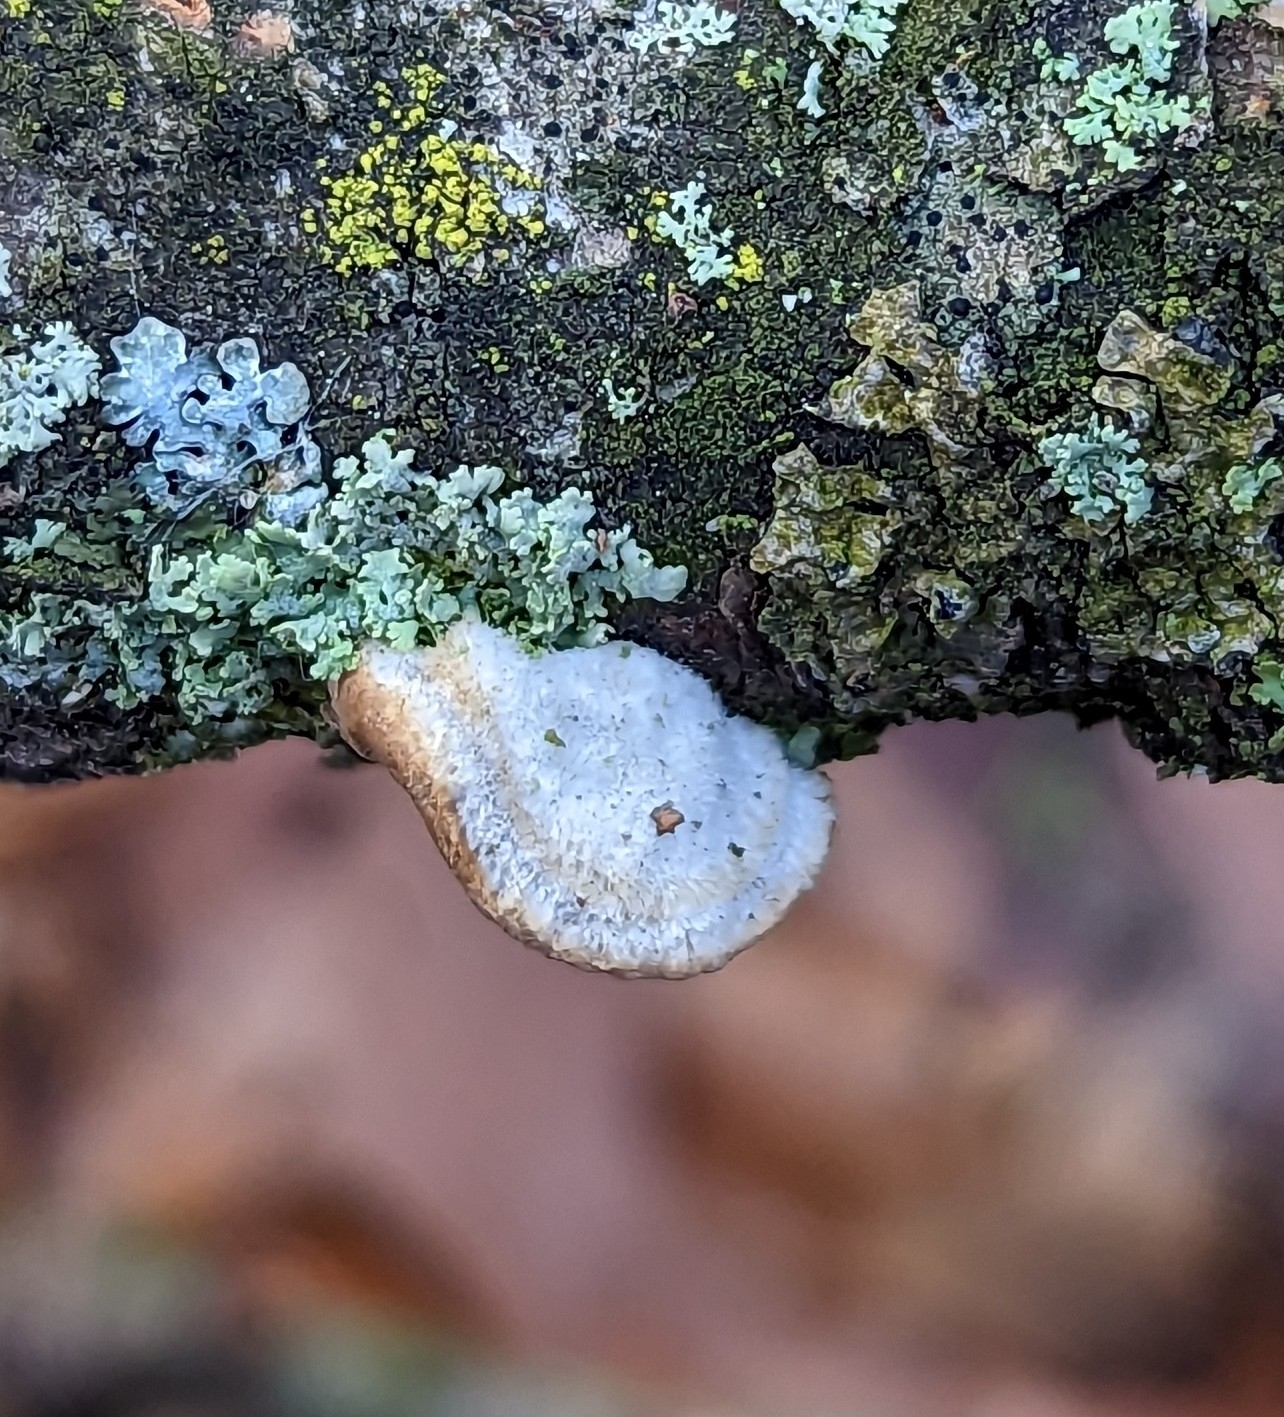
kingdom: Fungi
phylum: Basidiomycota
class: Agaricomycetes
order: Polyporales
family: Polyporaceae
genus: Neofavolus
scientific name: Neofavolus alveolaris
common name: Hexagonal-pored polypore
